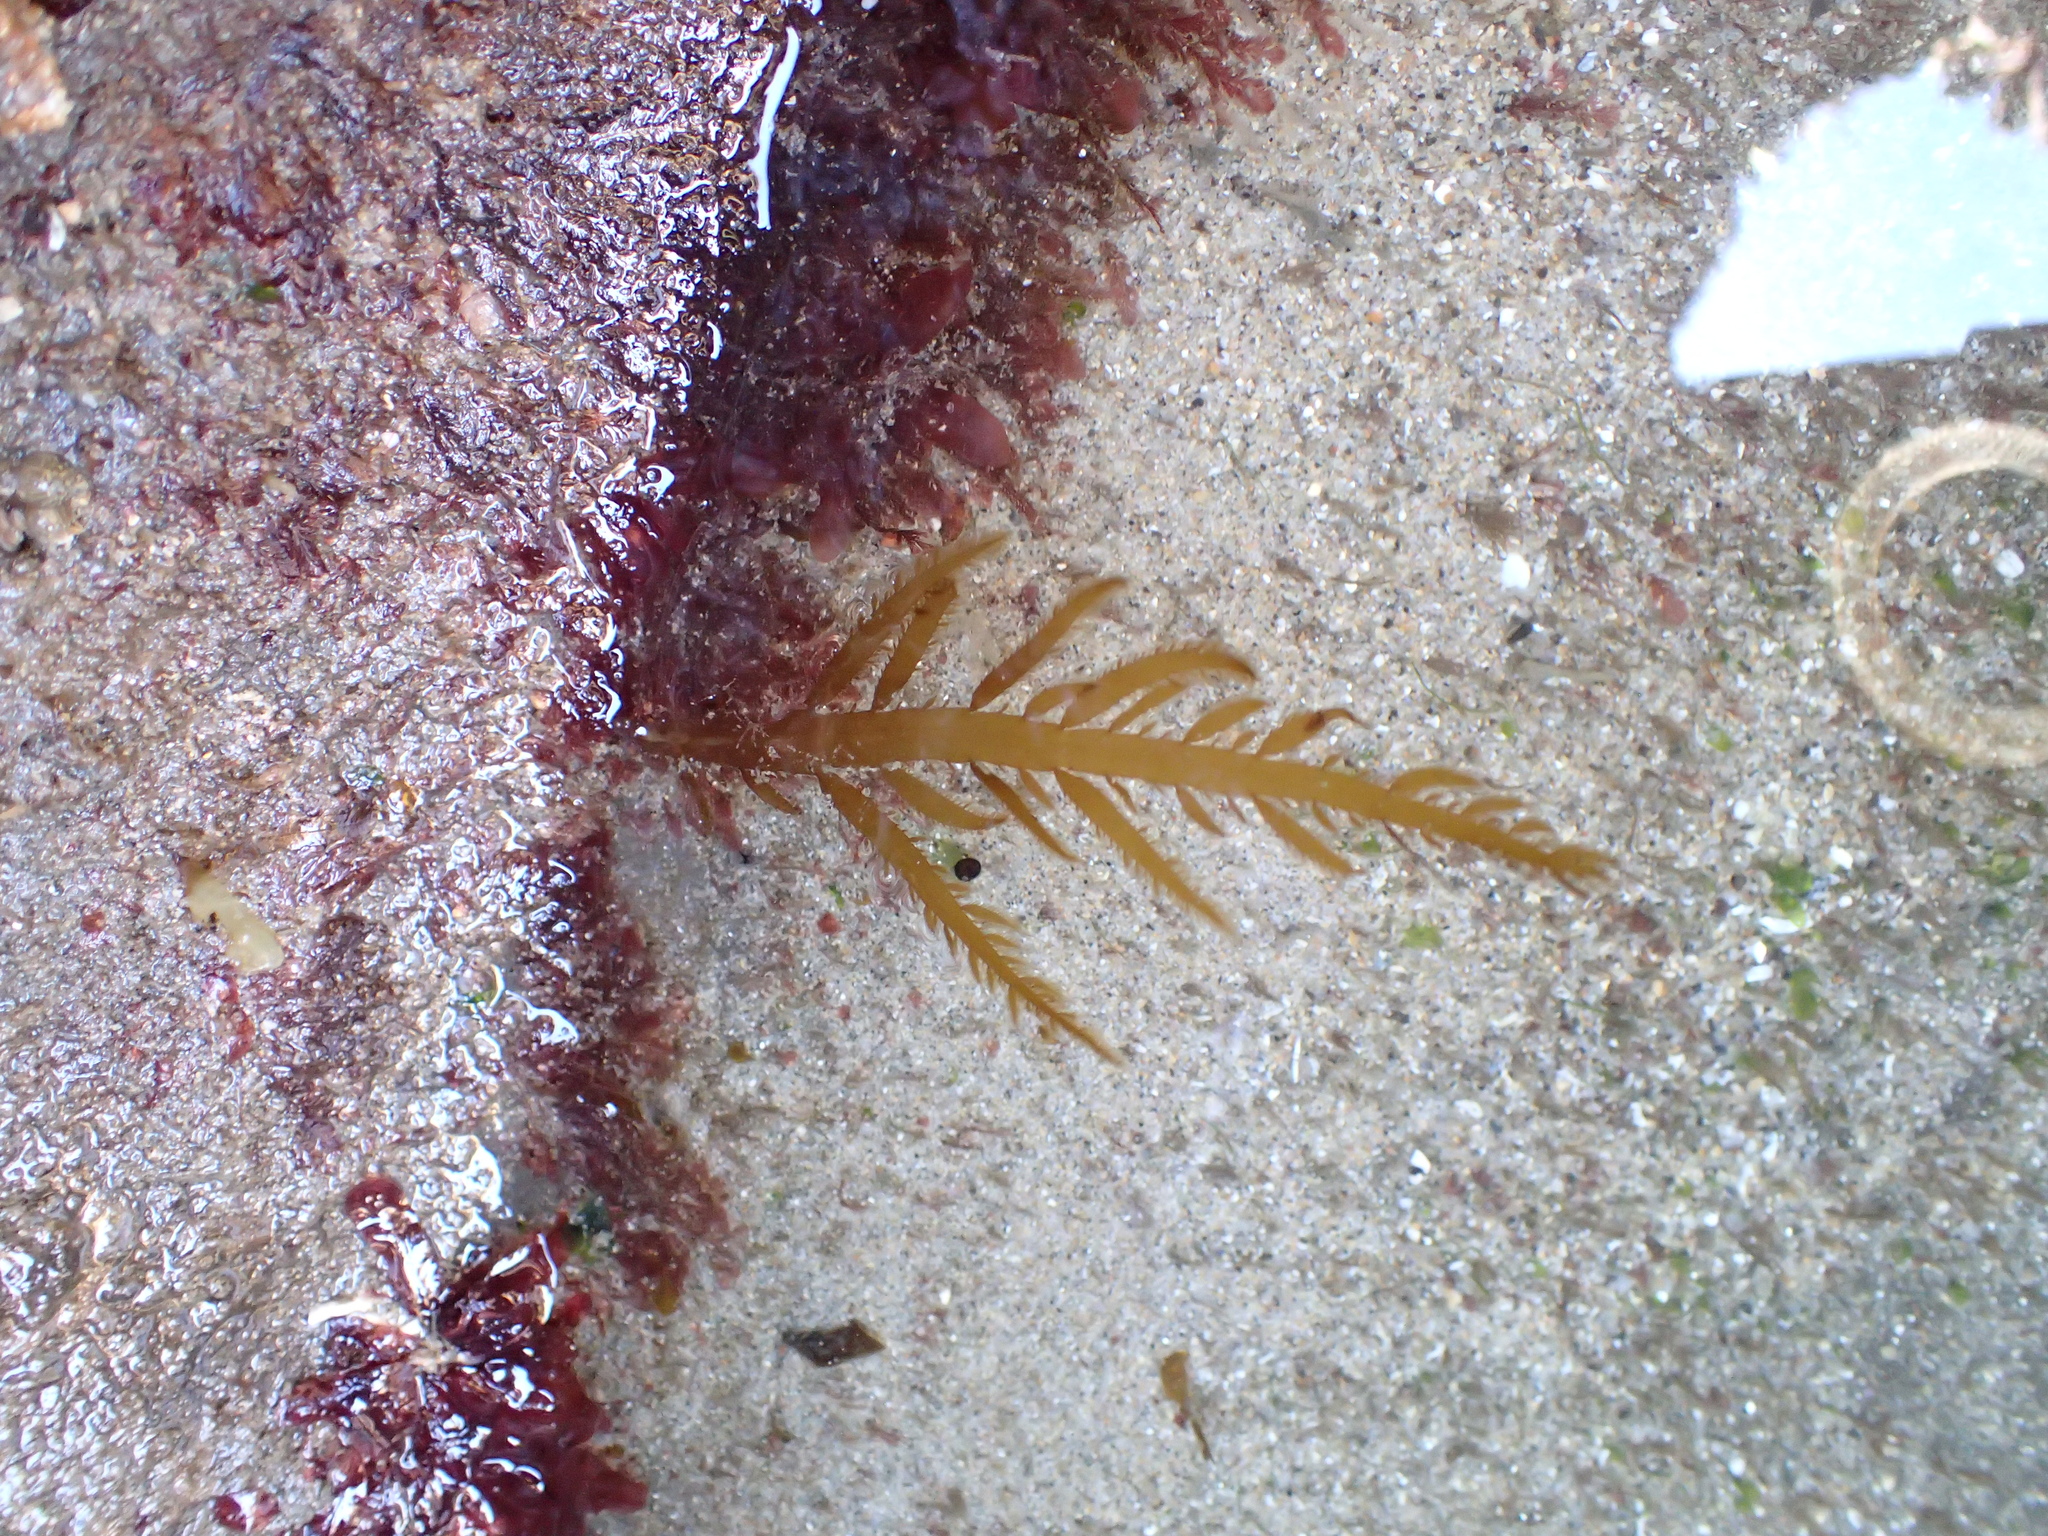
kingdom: Chromista
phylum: Ochrophyta
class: Phaeophyceae
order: Desmarestiales
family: Desmarestiaceae
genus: Desmarestia
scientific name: Desmarestia ligulata
